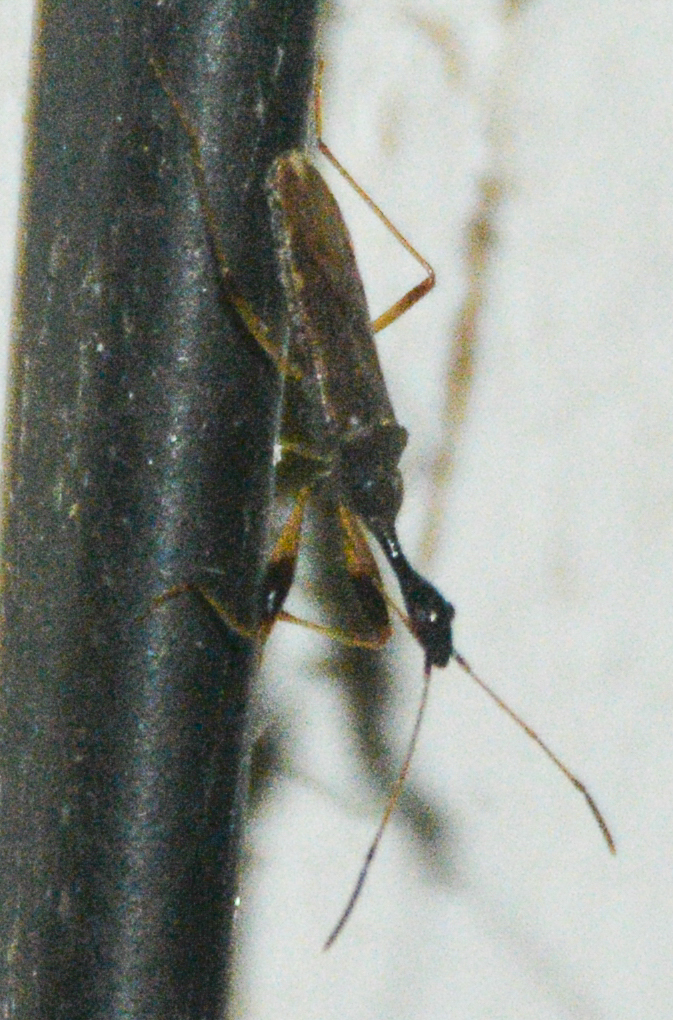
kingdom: Animalia
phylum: Arthropoda
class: Insecta
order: Hemiptera
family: Rhyparochromidae
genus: Myodocha
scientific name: Myodocha serripes
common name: Long-necked seed bug
